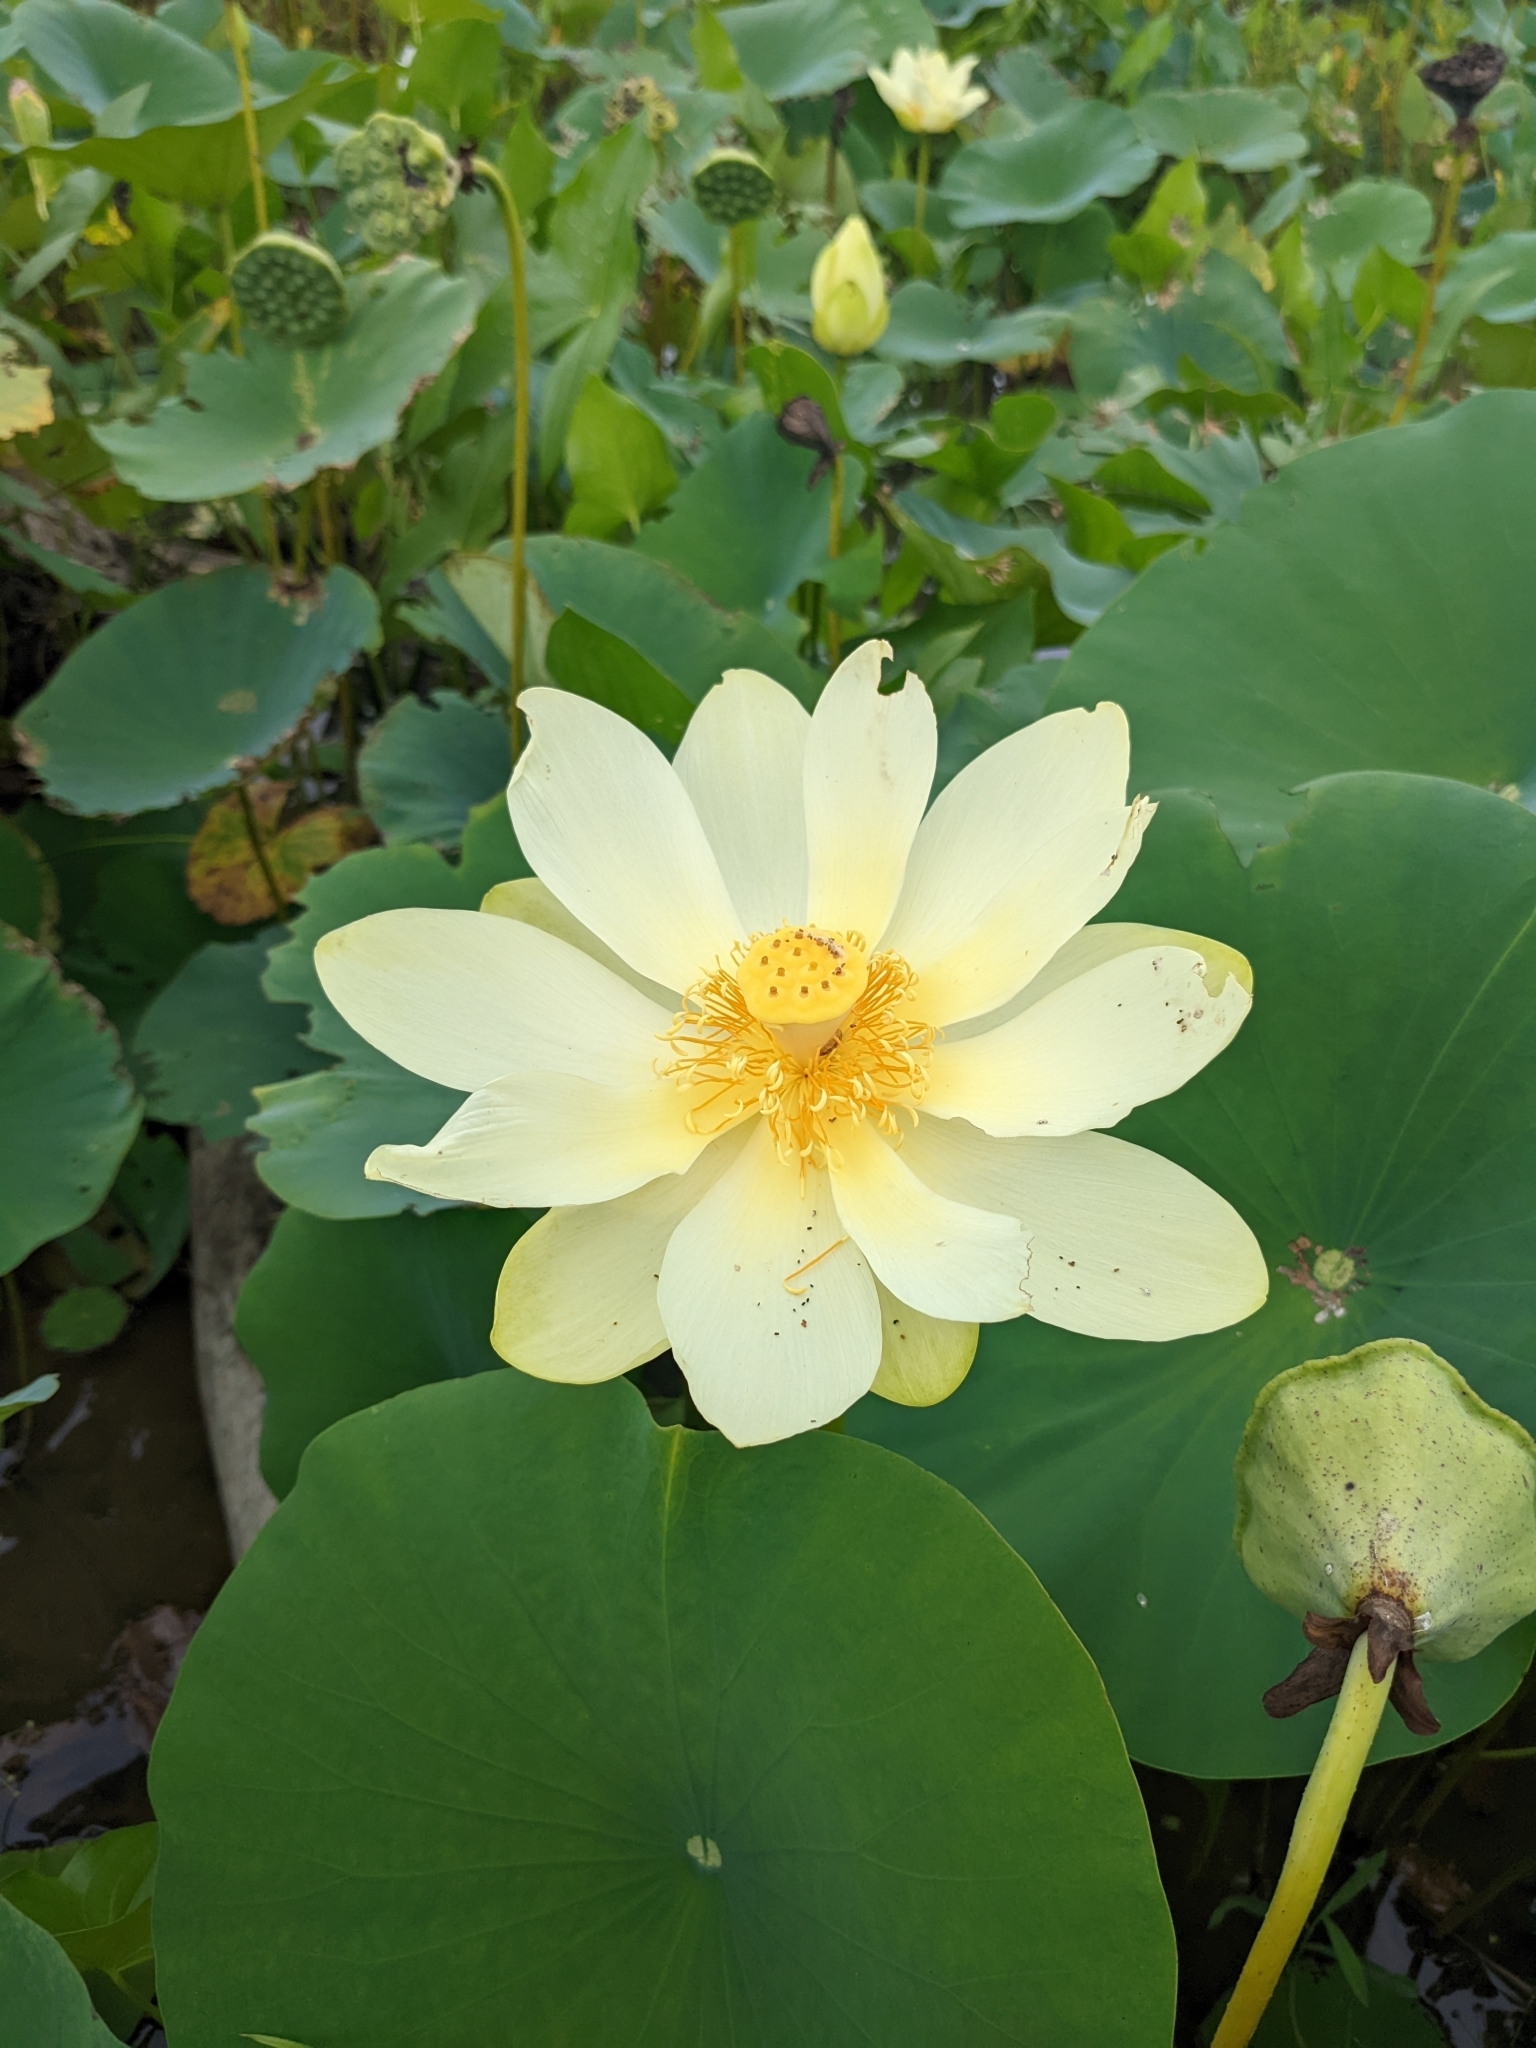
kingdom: Plantae
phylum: Tracheophyta
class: Magnoliopsida
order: Proteales
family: Nelumbonaceae
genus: Nelumbo
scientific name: Nelumbo lutea
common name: American lotus
